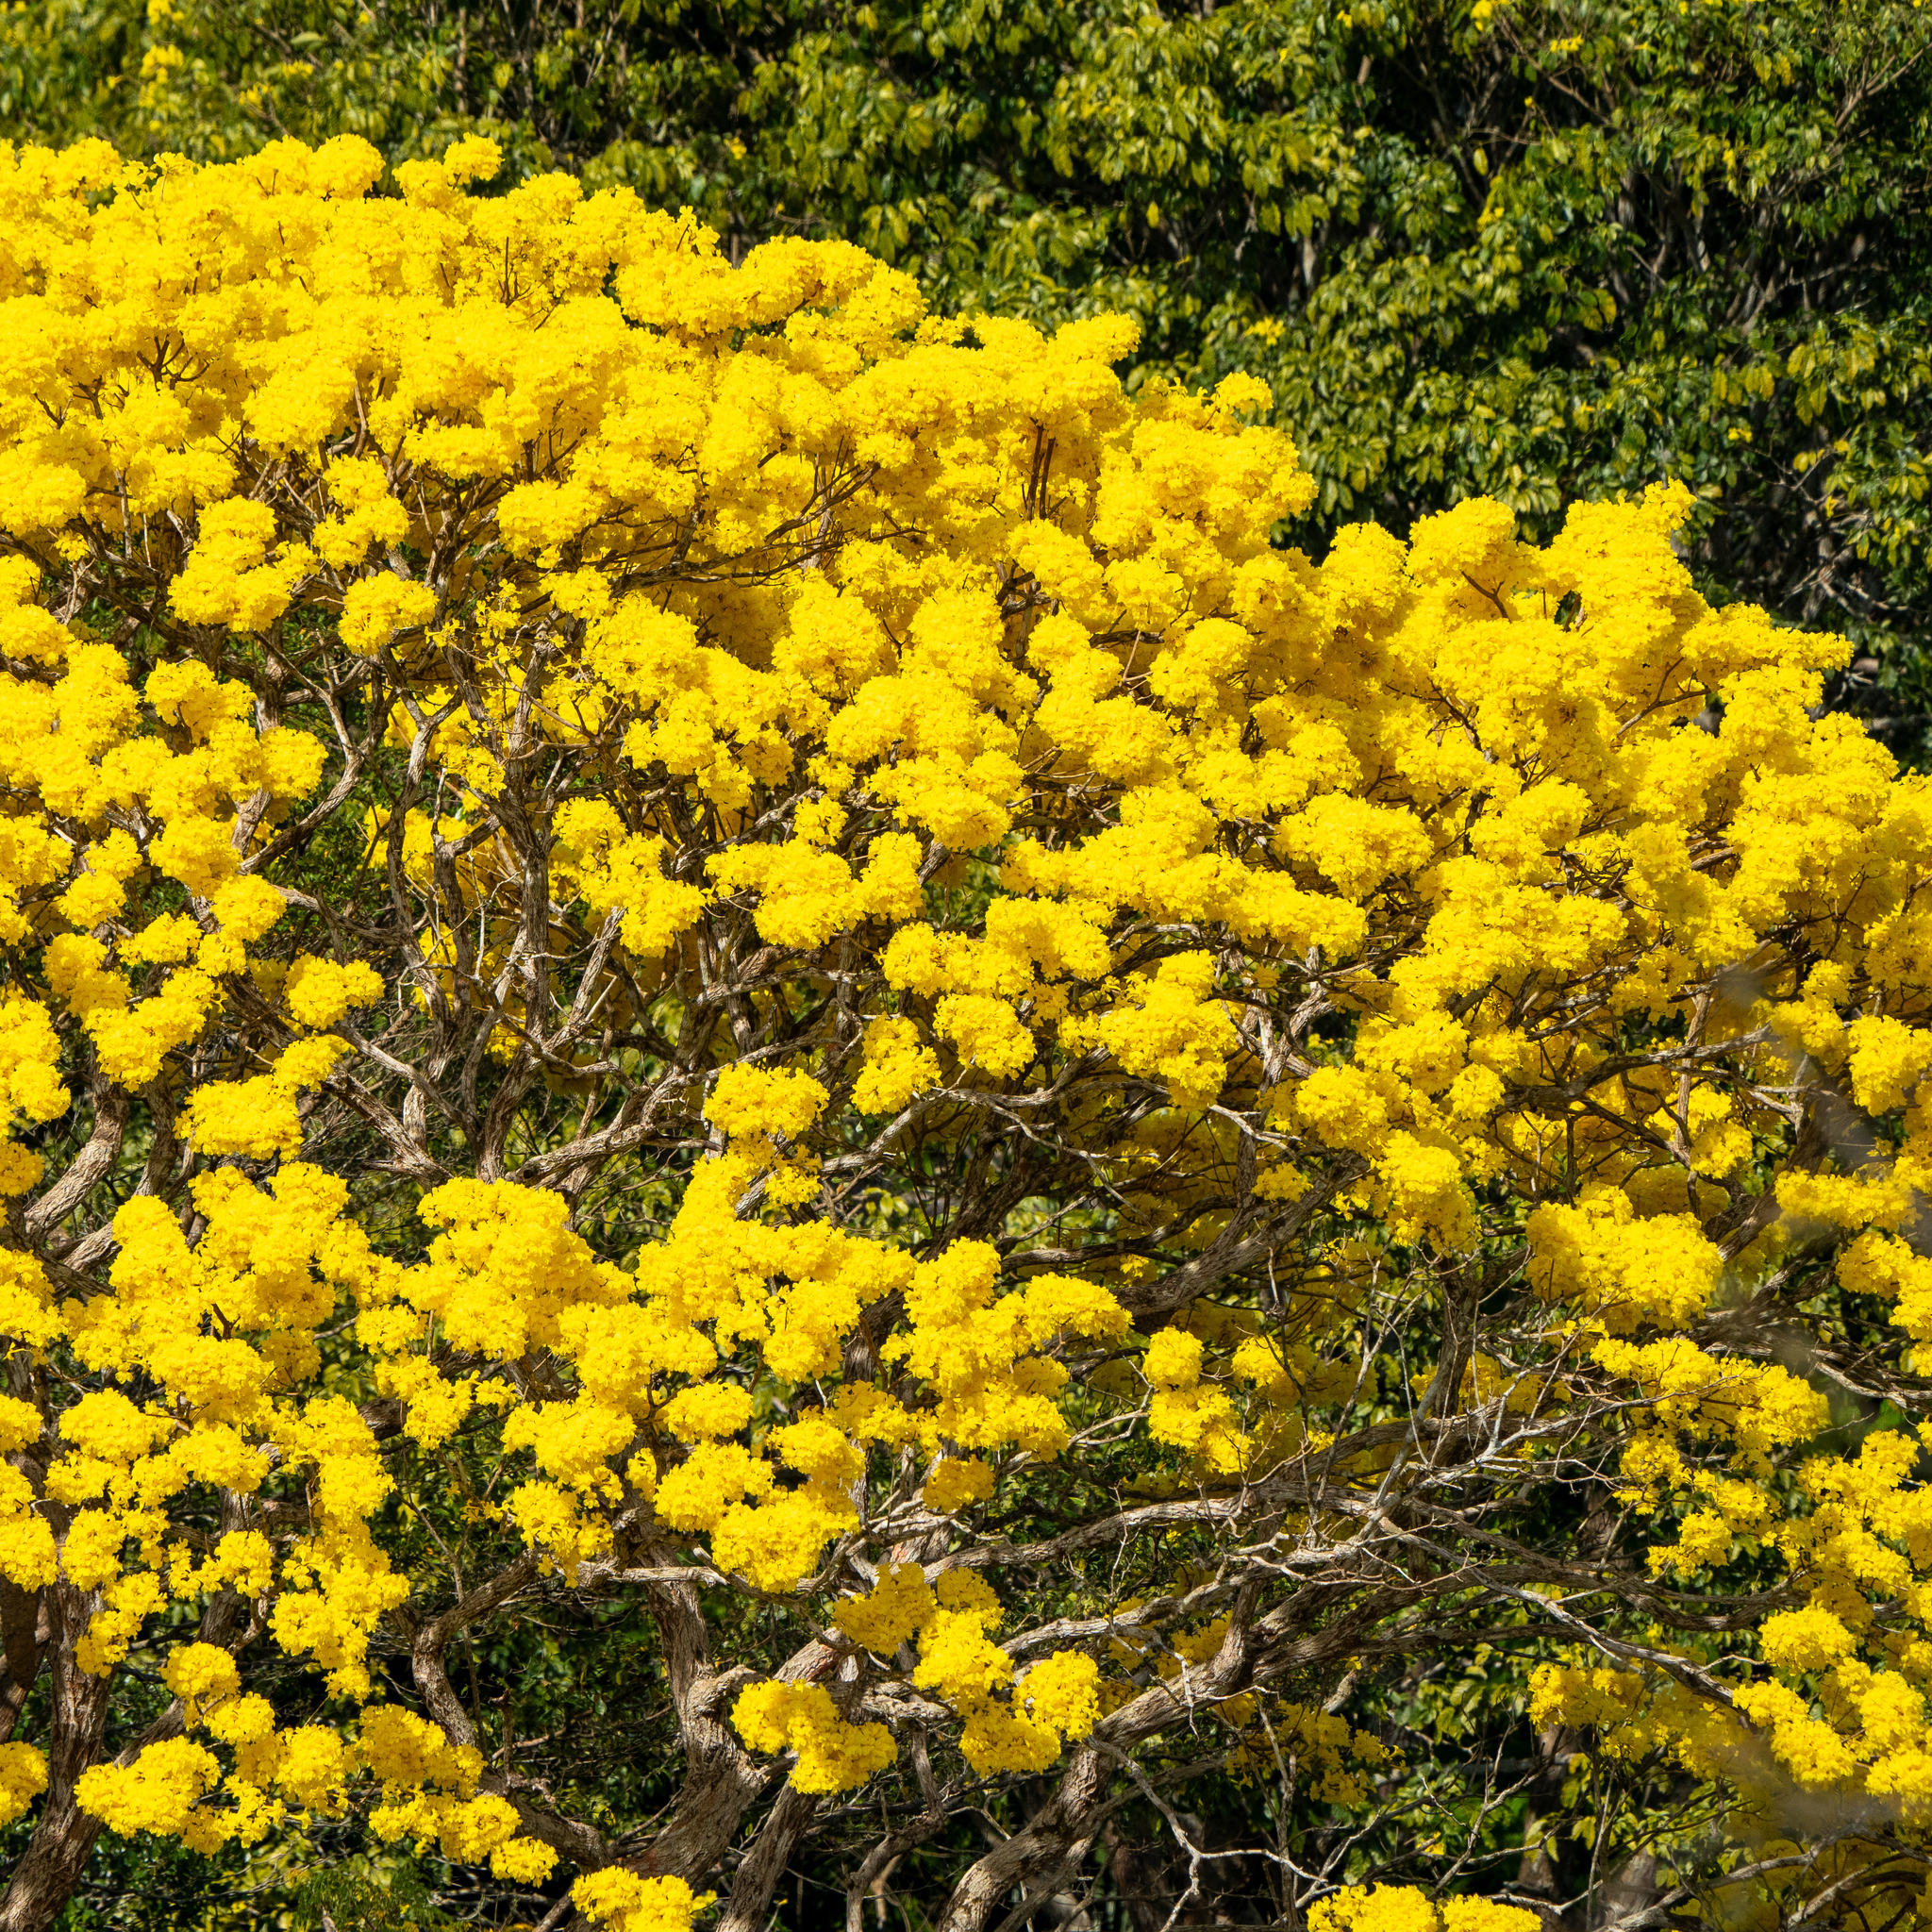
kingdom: Plantae
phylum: Tracheophyta
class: Magnoliopsida
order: Lamiales
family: Bignoniaceae
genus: Handroanthus
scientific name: Handroanthus guayacan
